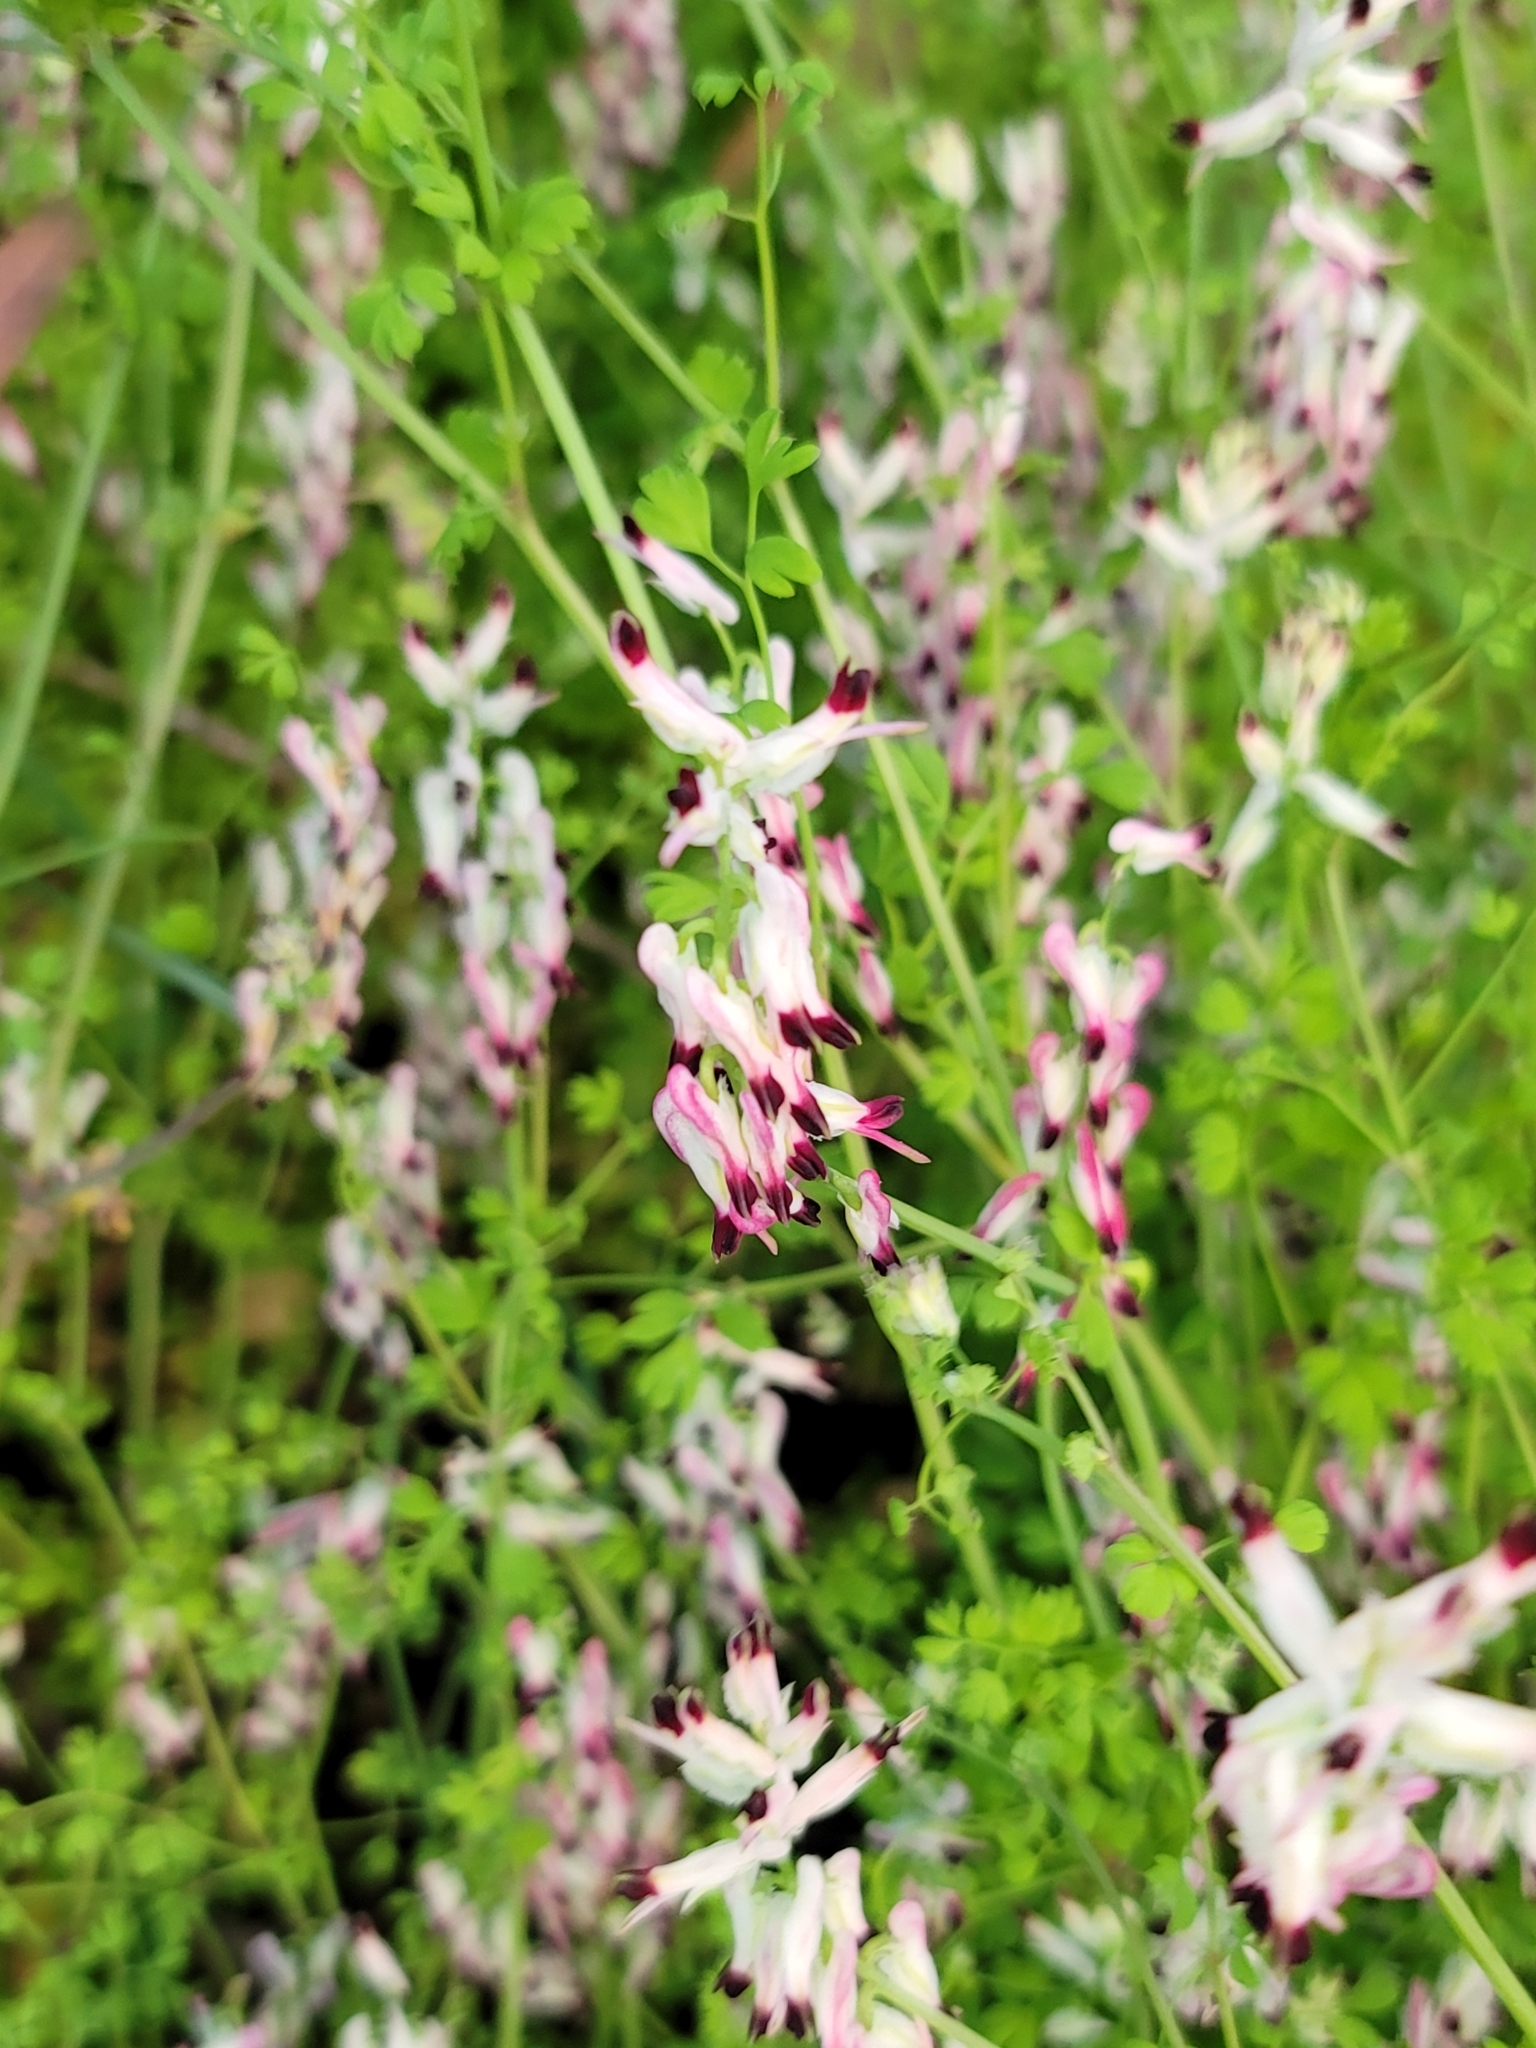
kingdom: Plantae
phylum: Tracheophyta
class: Magnoliopsida
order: Ranunculales
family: Papaveraceae
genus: Fumaria
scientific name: Fumaria capreolata
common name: White ramping-fumitory
